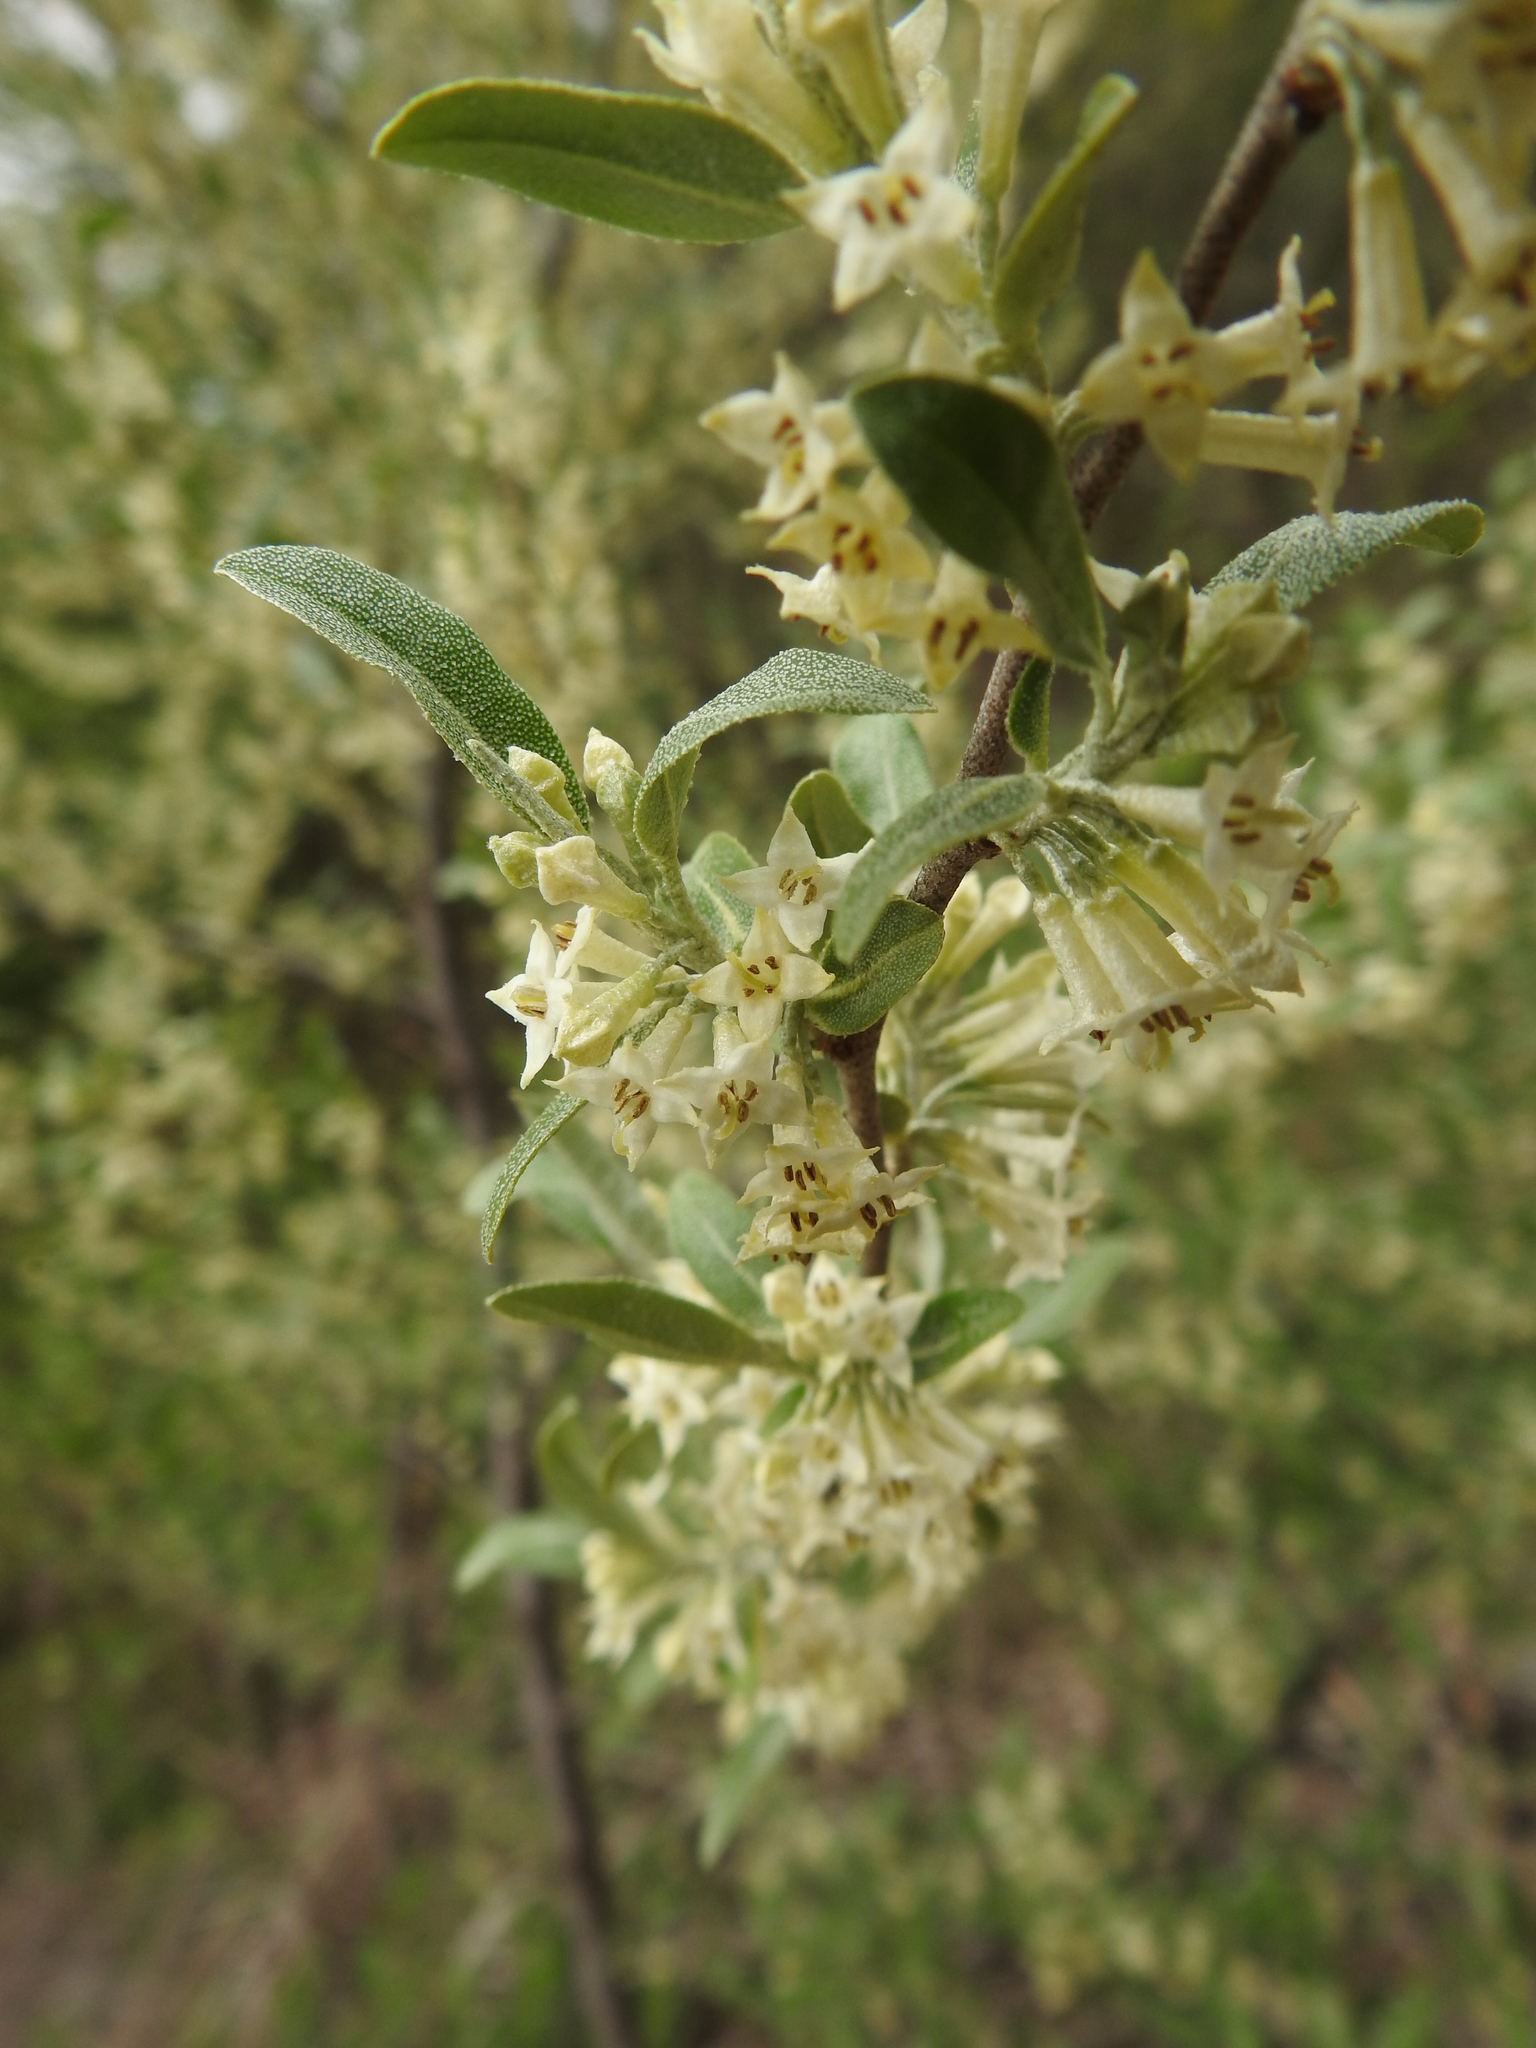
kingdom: Plantae
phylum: Tracheophyta
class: Magnoliopsida
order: Rosales
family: Elaeagnaceae
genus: Elaeagnus
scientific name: Elaeagnus umbellata
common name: Autumn olive
